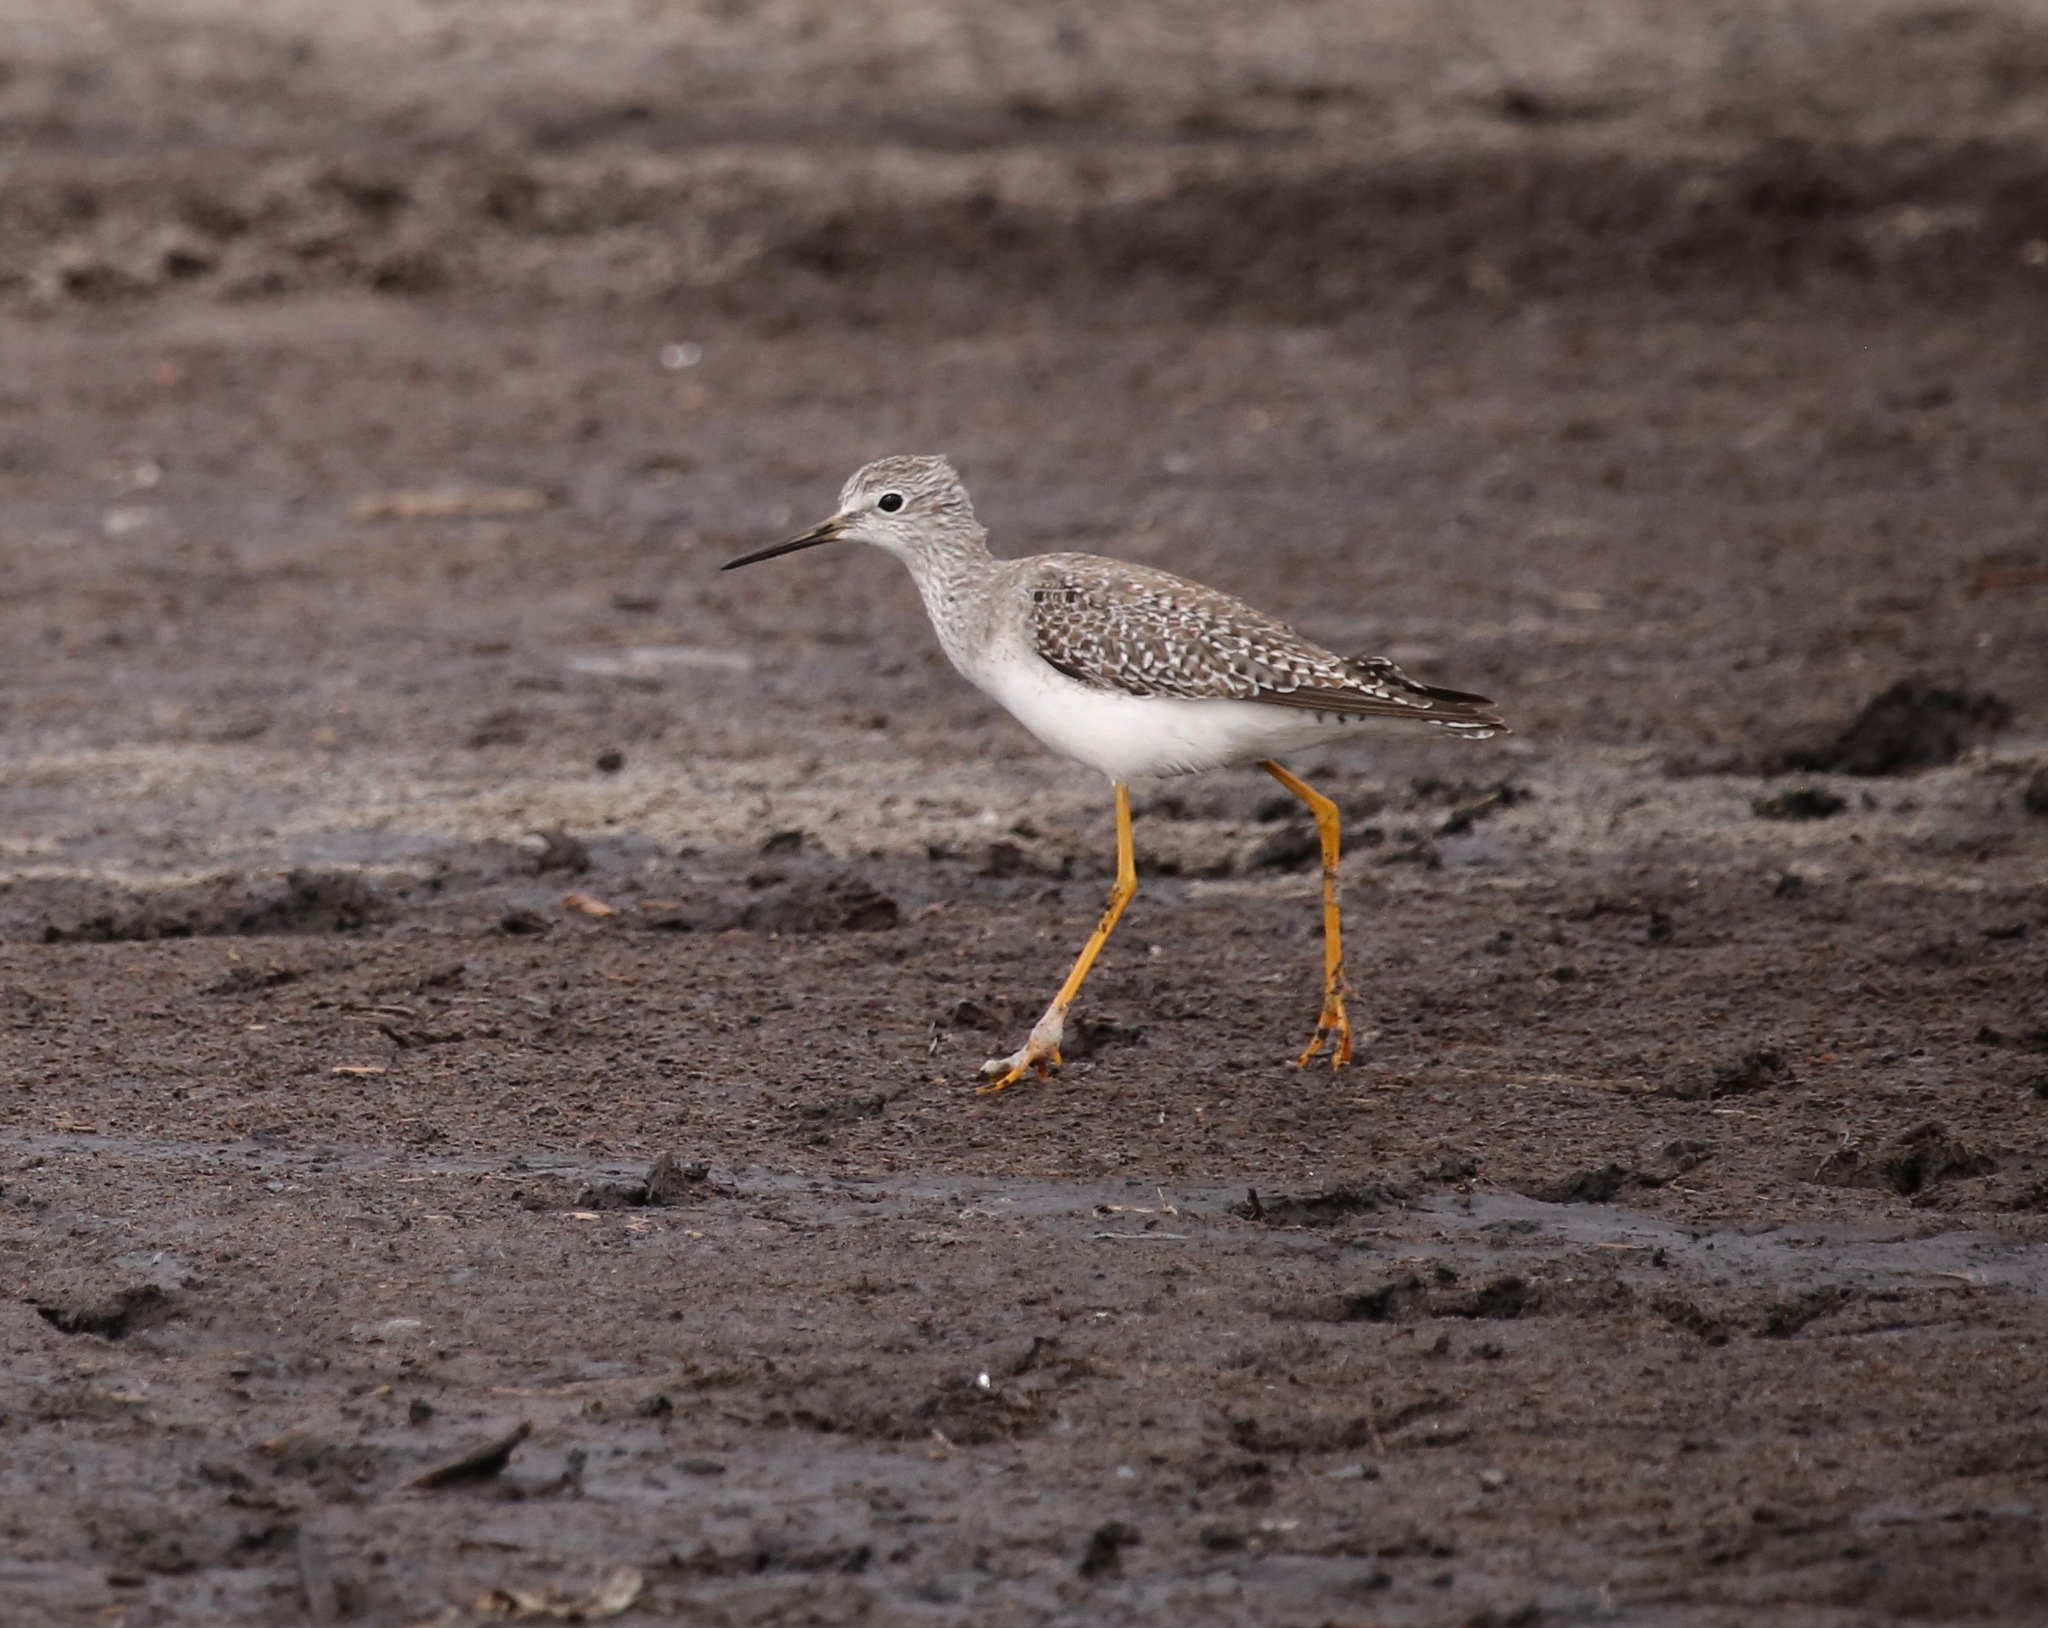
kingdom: Animalia
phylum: Chordata
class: Aves
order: Charadriiformes
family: Scolopacidae
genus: Tringa
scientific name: Tringa flavipes
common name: Lesser yellowlegs
